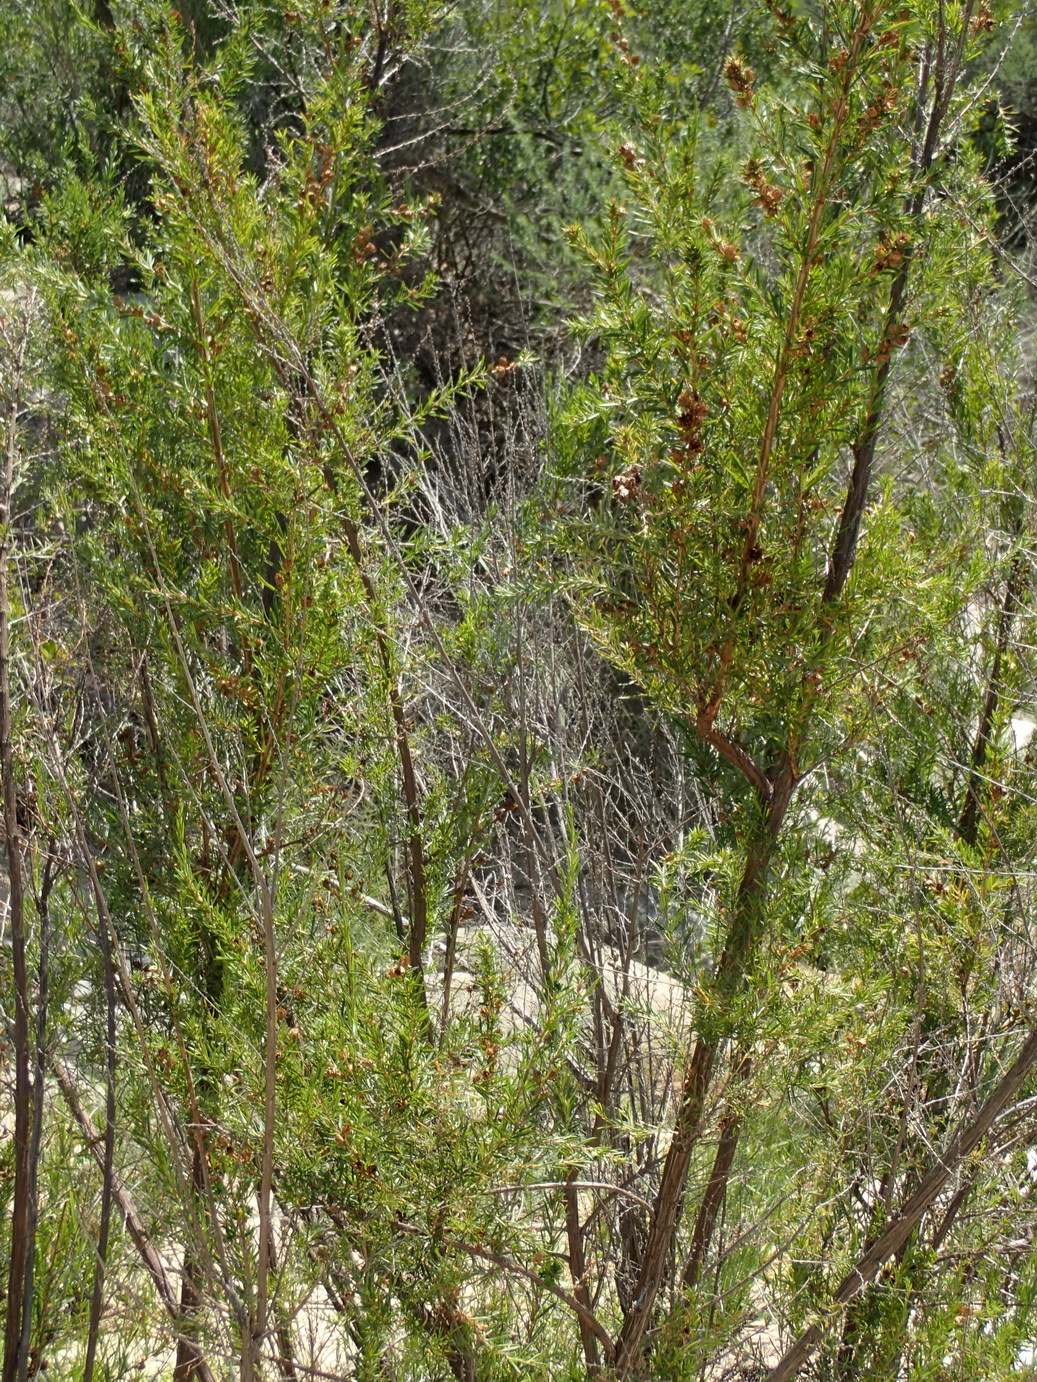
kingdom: Plantae
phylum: Tracheophyta
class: Magnoliopsida
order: Rosales
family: Rosaceae
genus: Cliffortia
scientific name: Cliffortia strobilifera
